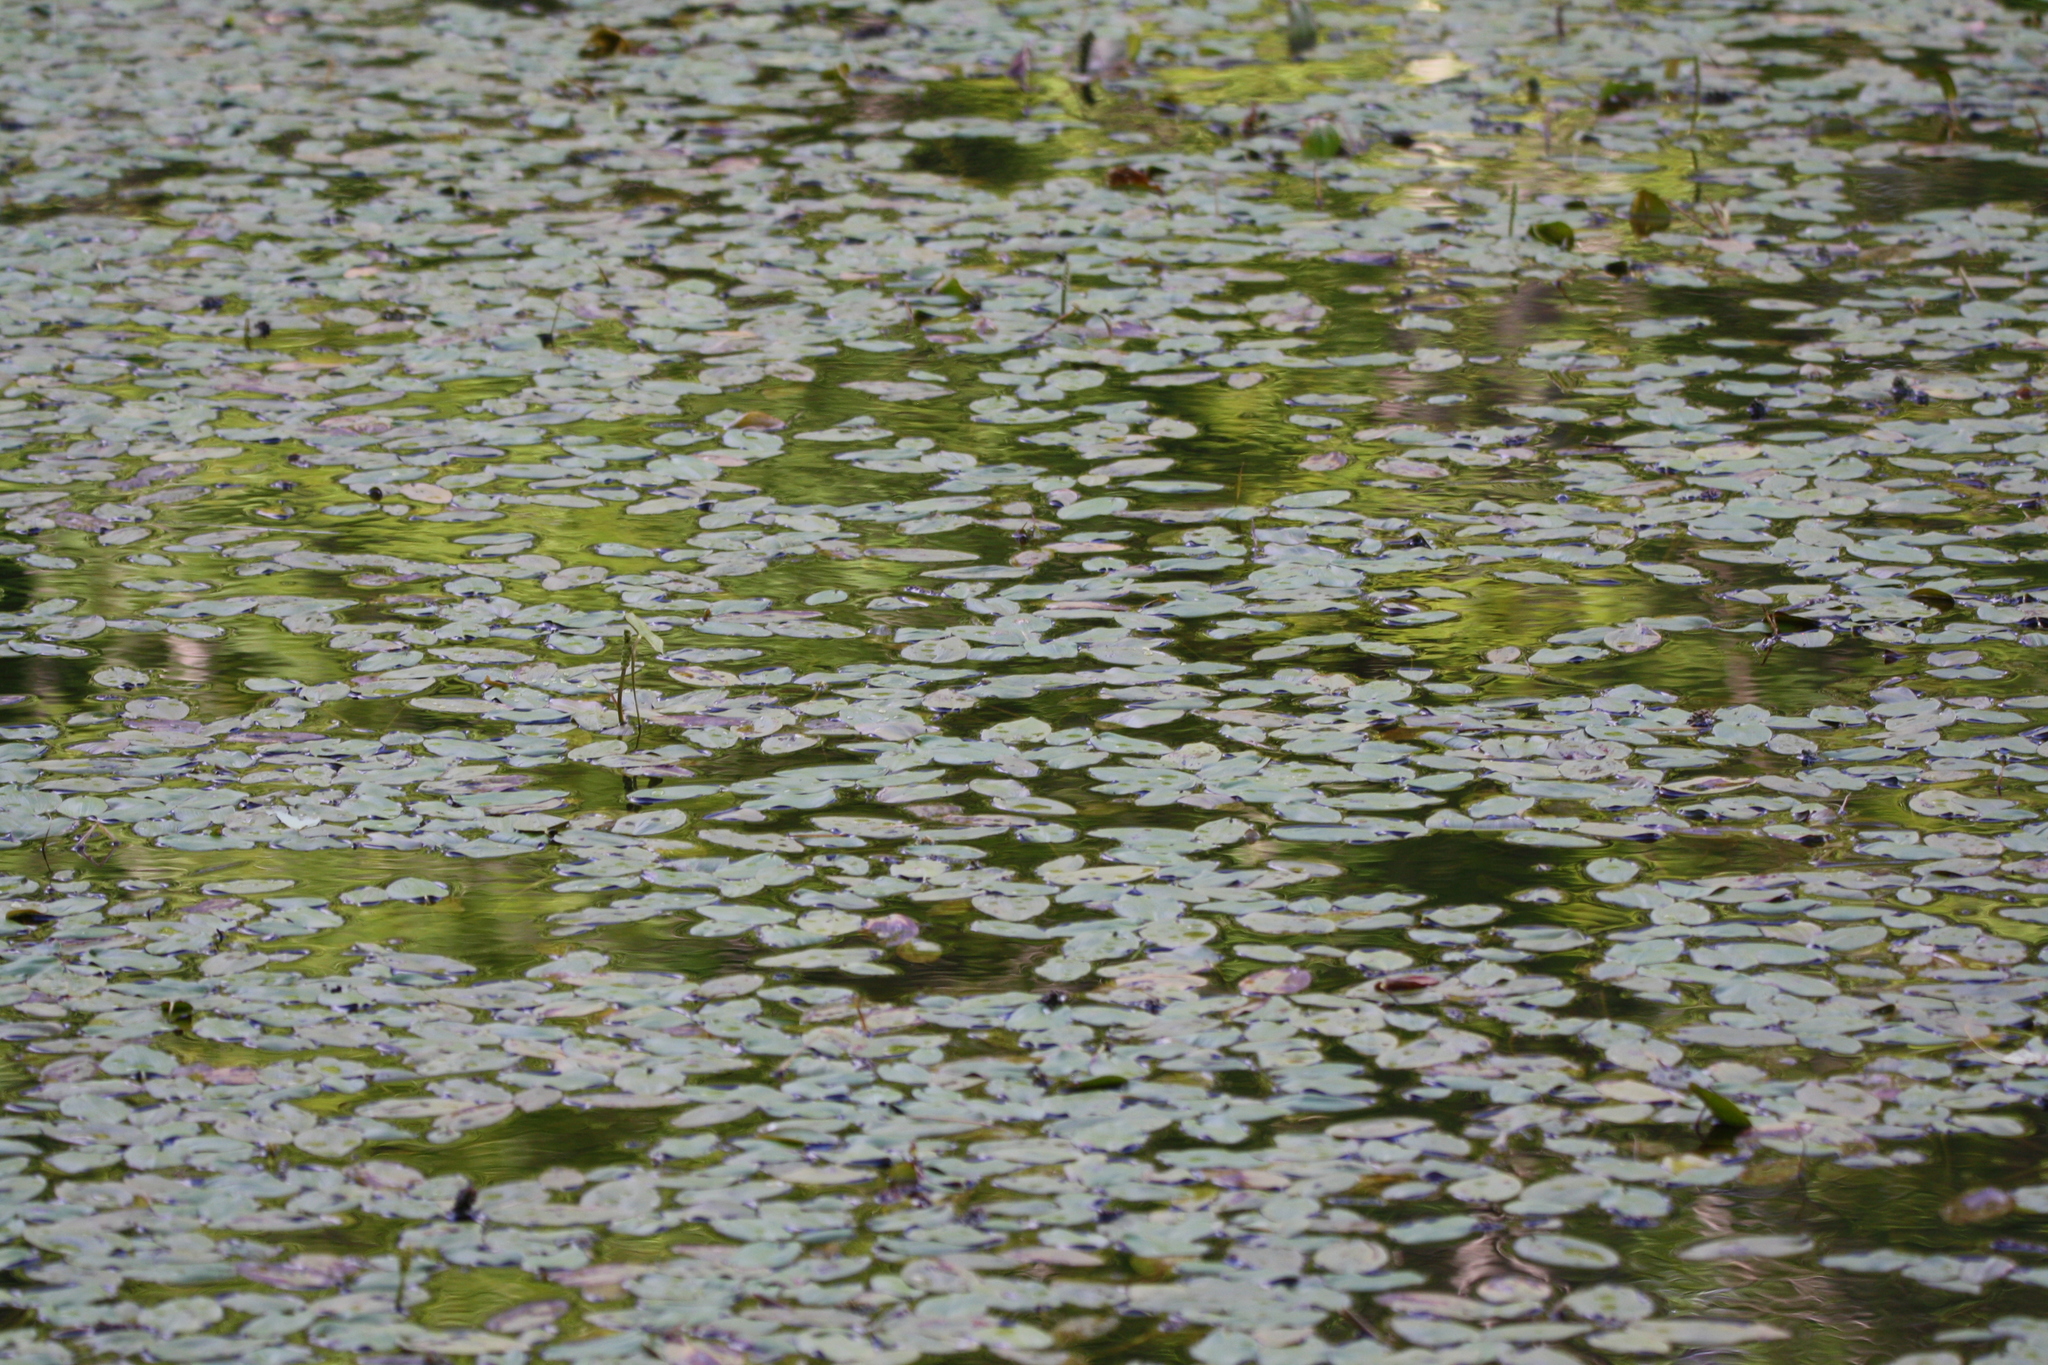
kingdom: Plantae
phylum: Tracheophyta
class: Liliopsida
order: Alismatales
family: Potamogetonaceae
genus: Potamogeton
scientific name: Potamogeton natans
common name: Broad-leaved pondweed
